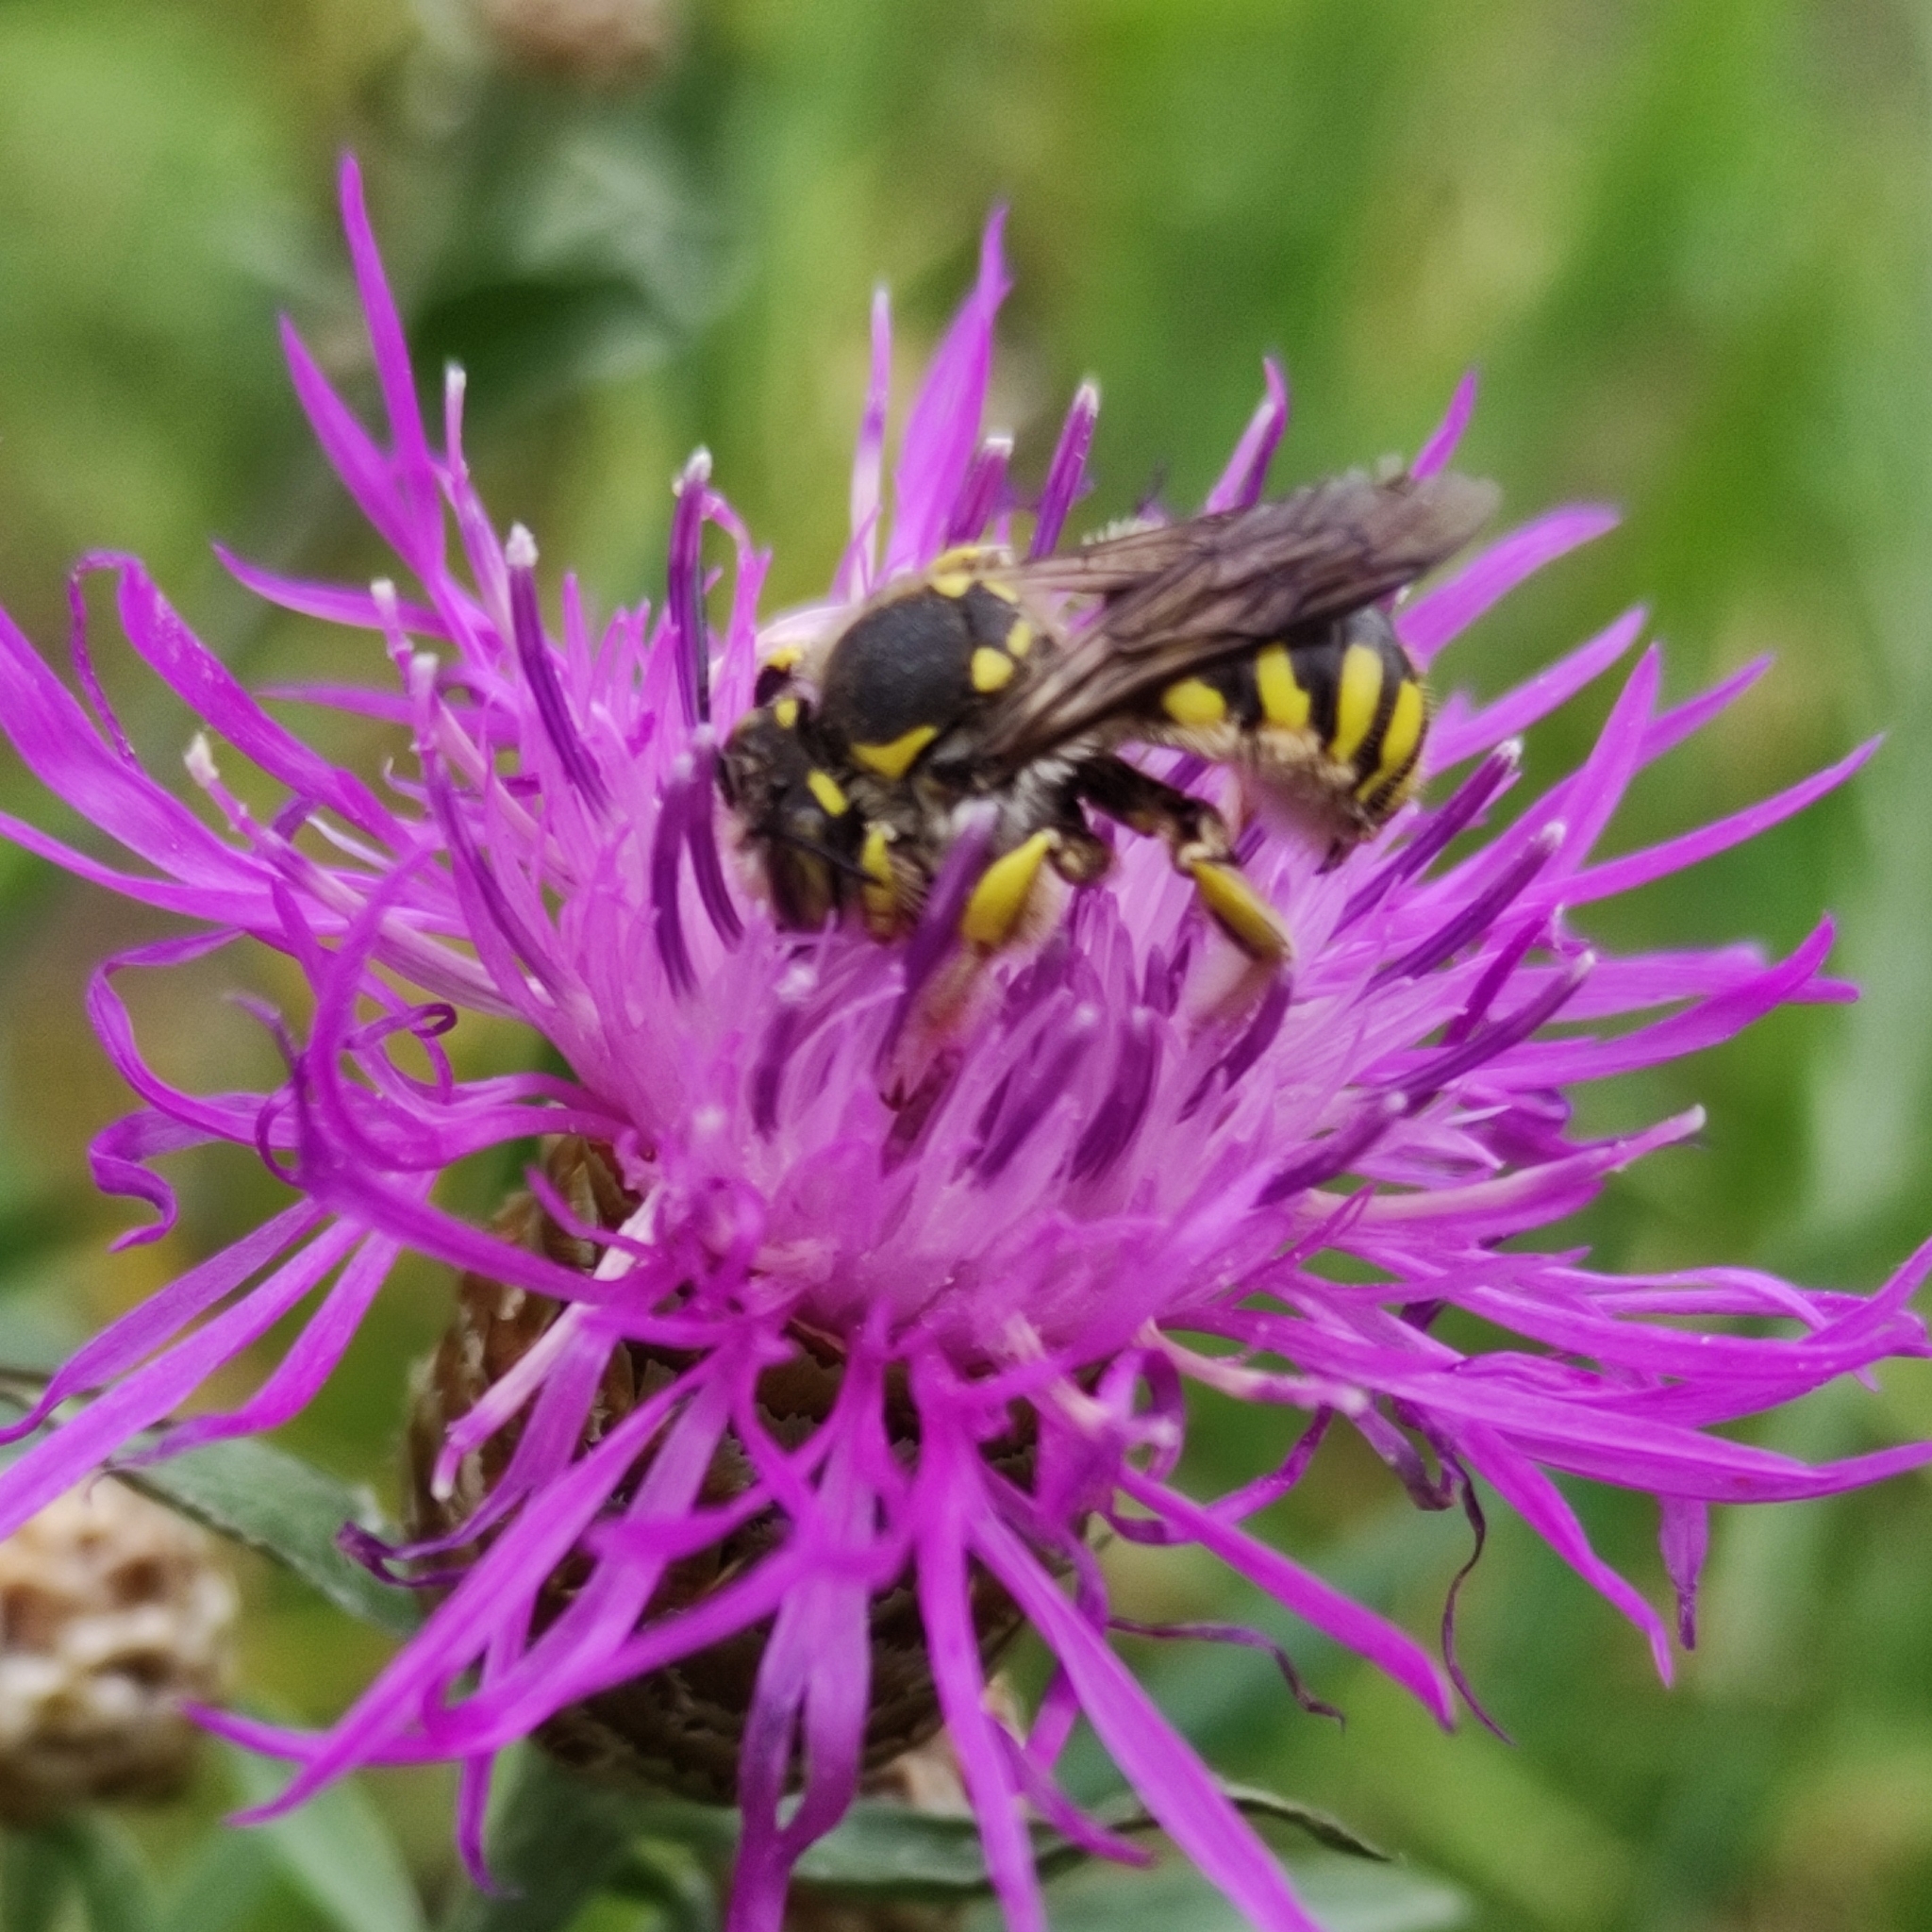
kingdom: Animalia
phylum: Arthropoda
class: Insecta
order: Hymenoptera
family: Megachilidae
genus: Anthidium
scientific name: Anthidium florentinum
